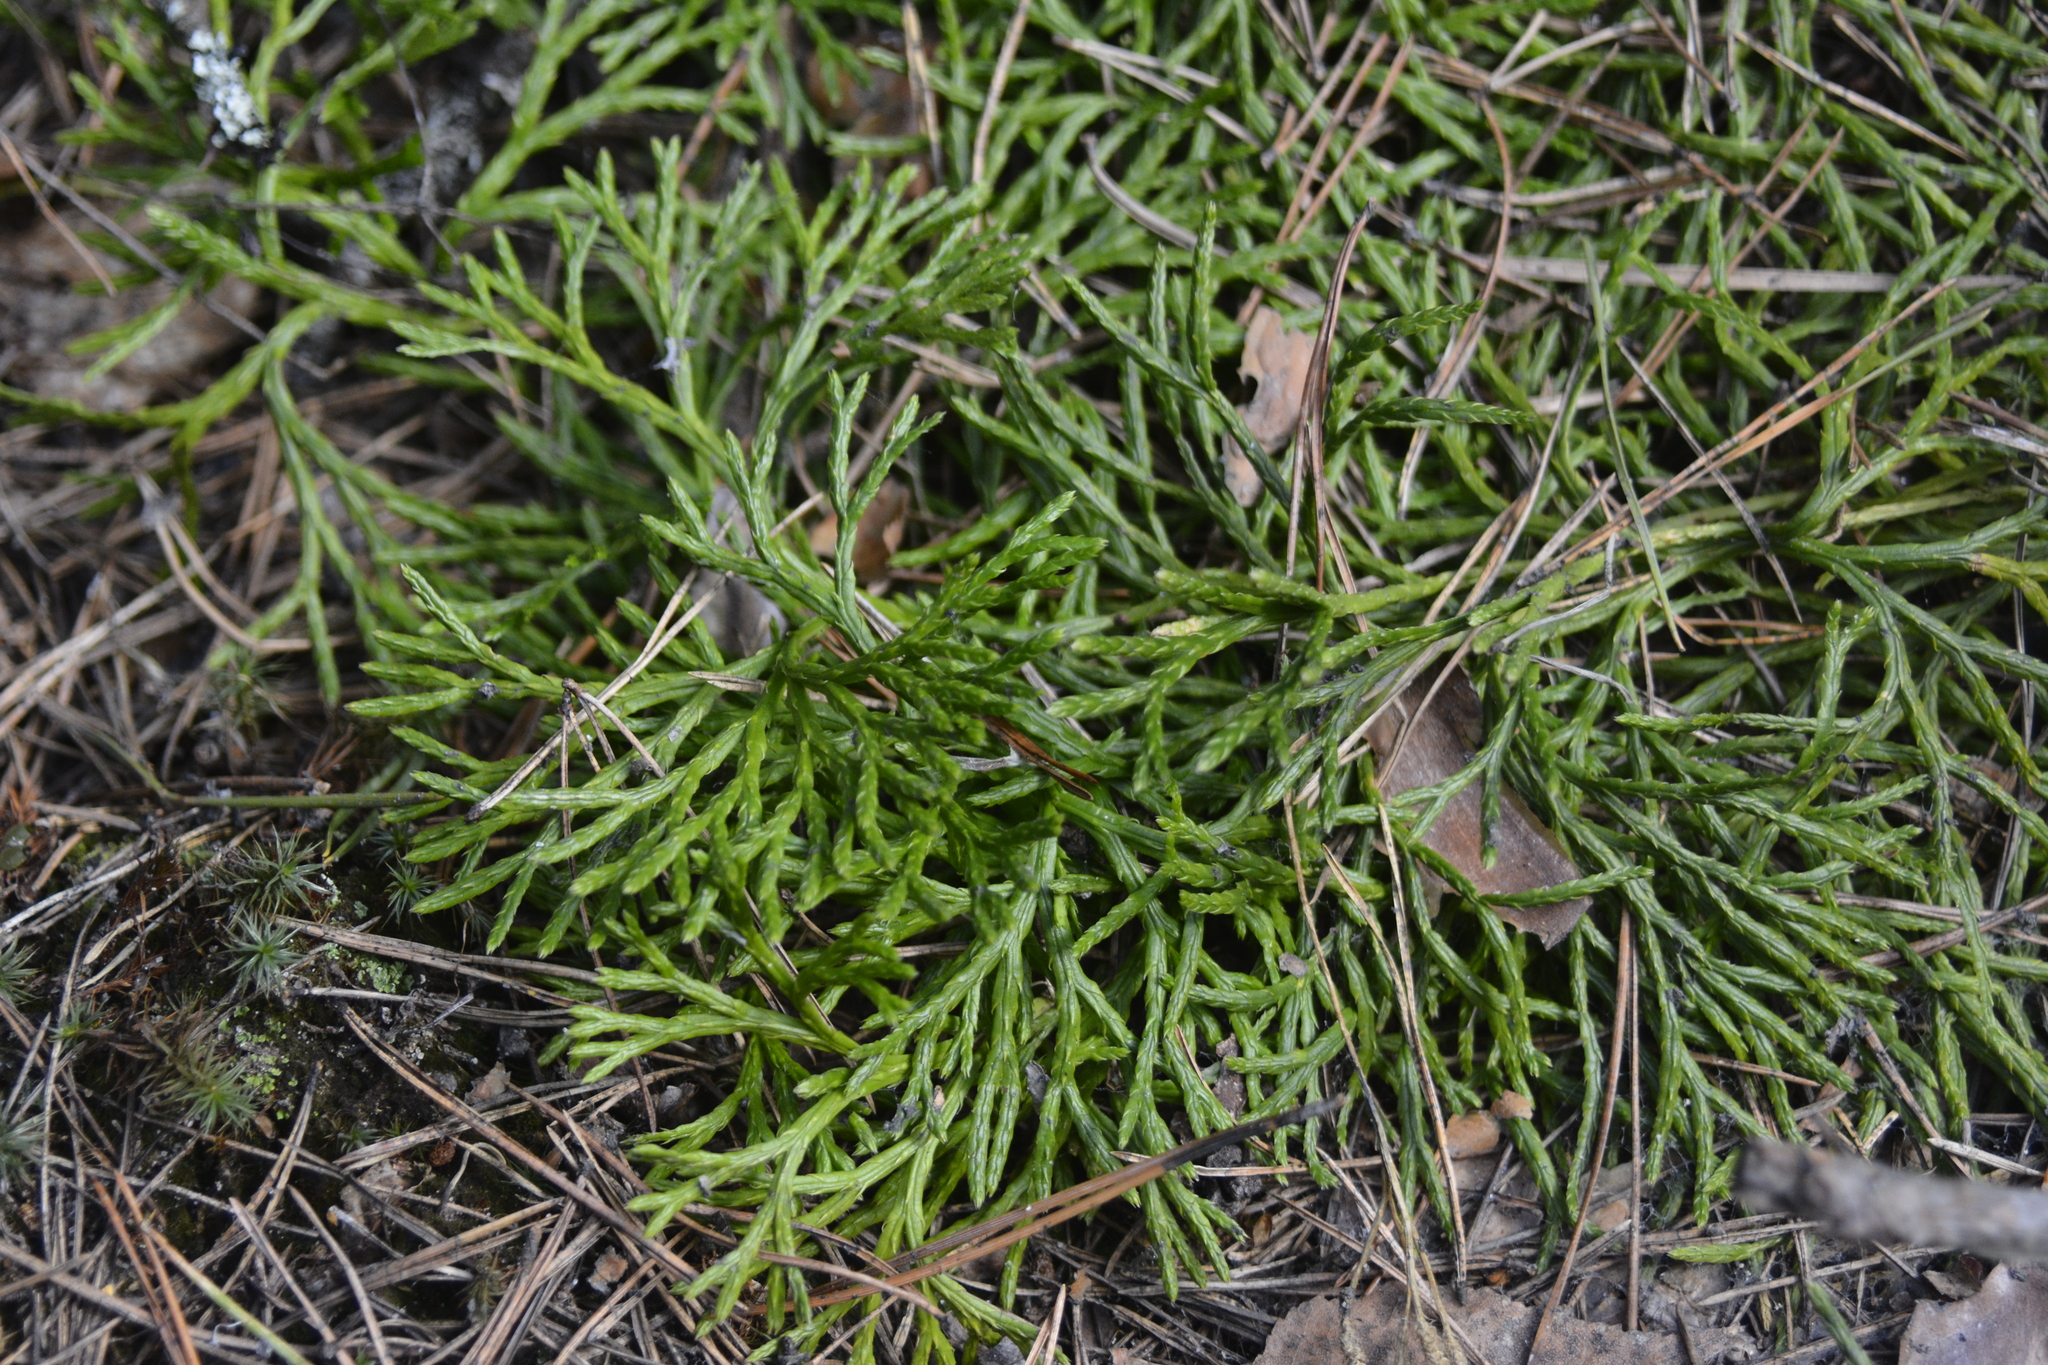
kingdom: Plantae
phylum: Tracheophyta
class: Lycopodiopsida
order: Lycopodiales
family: Lycopodiaceae
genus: Diphasiastrum
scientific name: Diphasiastrum complanatum
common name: Northern running-pine
